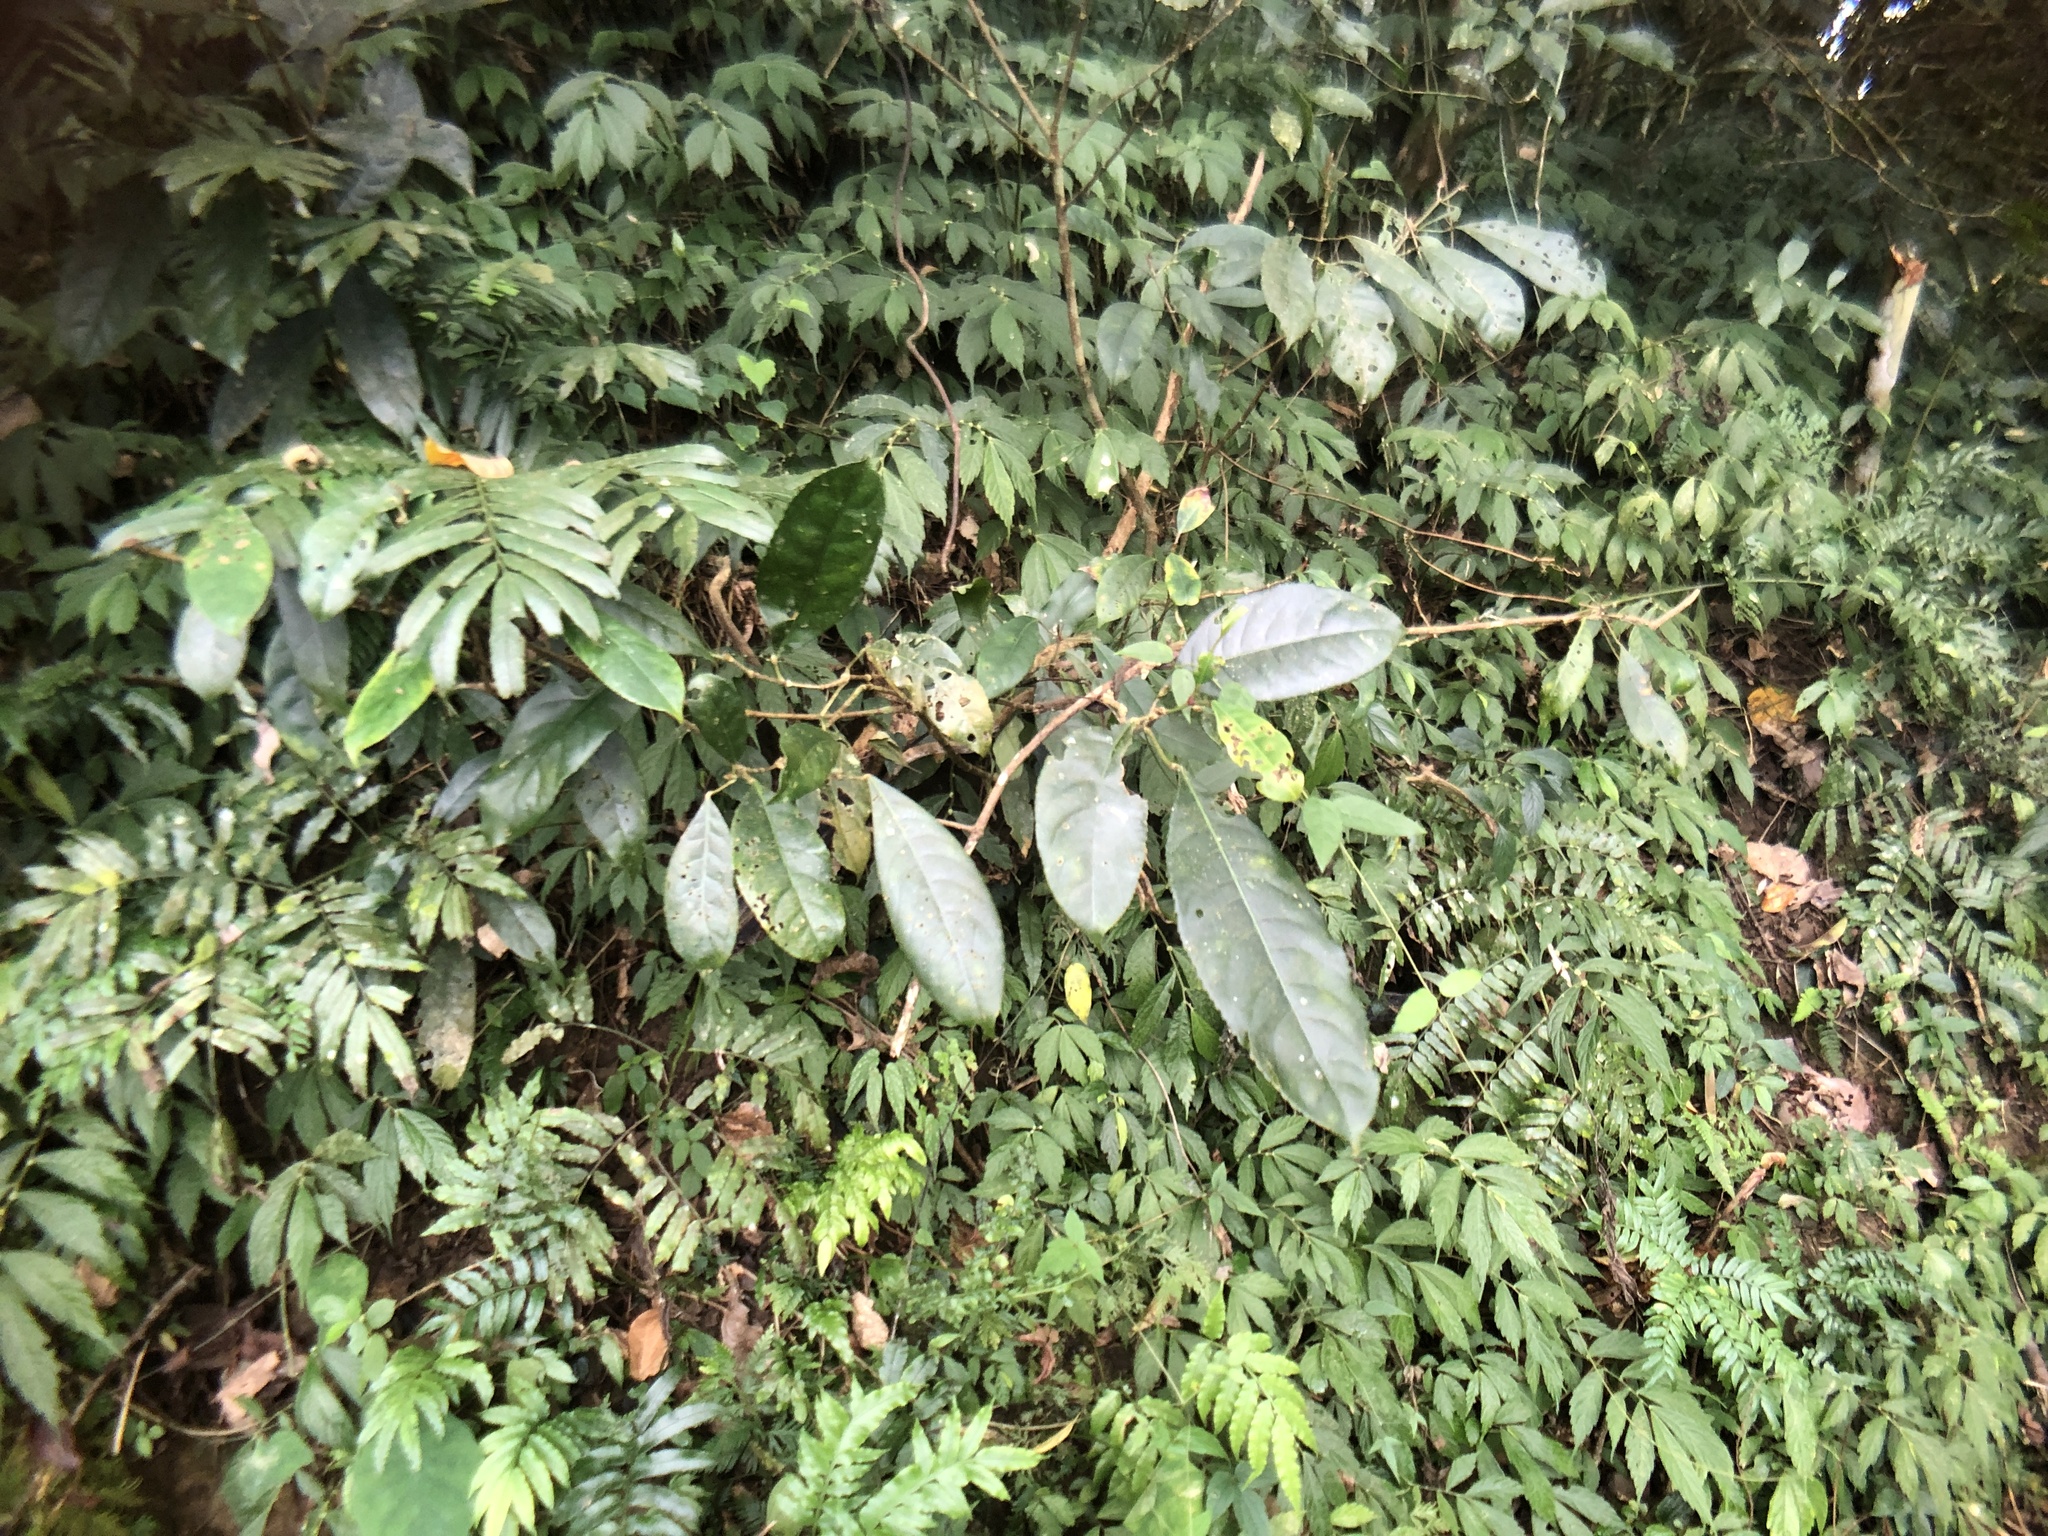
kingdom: Plantae
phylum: Tracheophyta
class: Magnoliopsida
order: Crossosomatales
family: Staphyleaceae
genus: Turpinia
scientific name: Turpinia formosana
